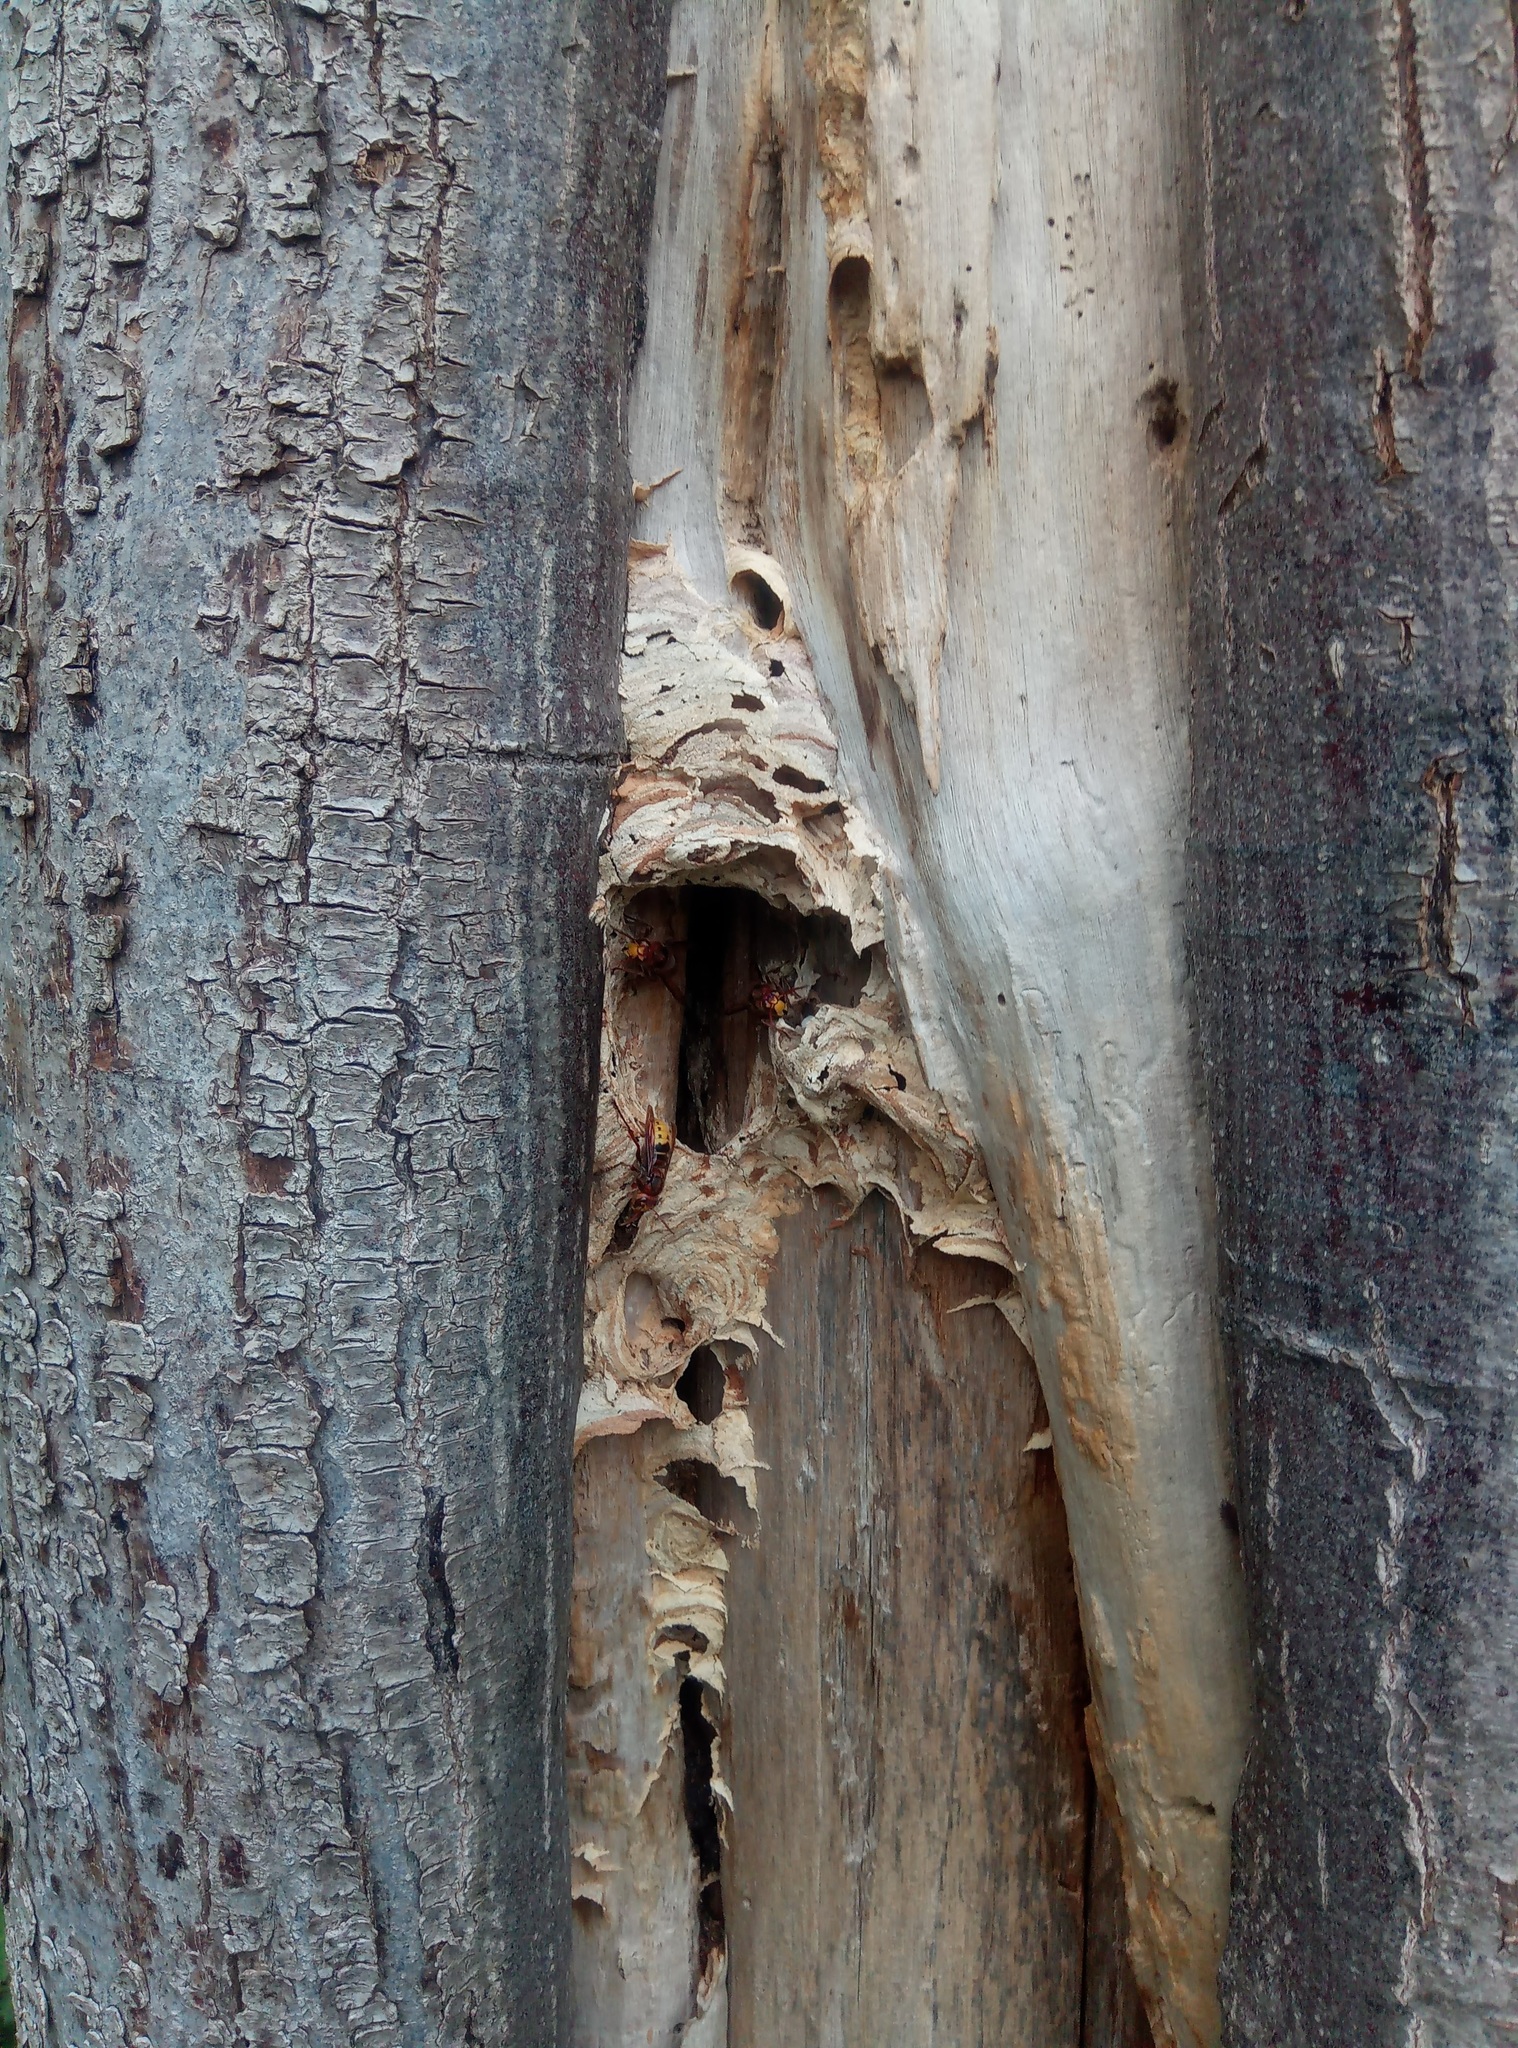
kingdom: Animalia
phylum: Arthropoda
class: Insecta
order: Hymenoptera
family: Vespidae
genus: Vespa
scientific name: Vespa crabro
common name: Hornet
